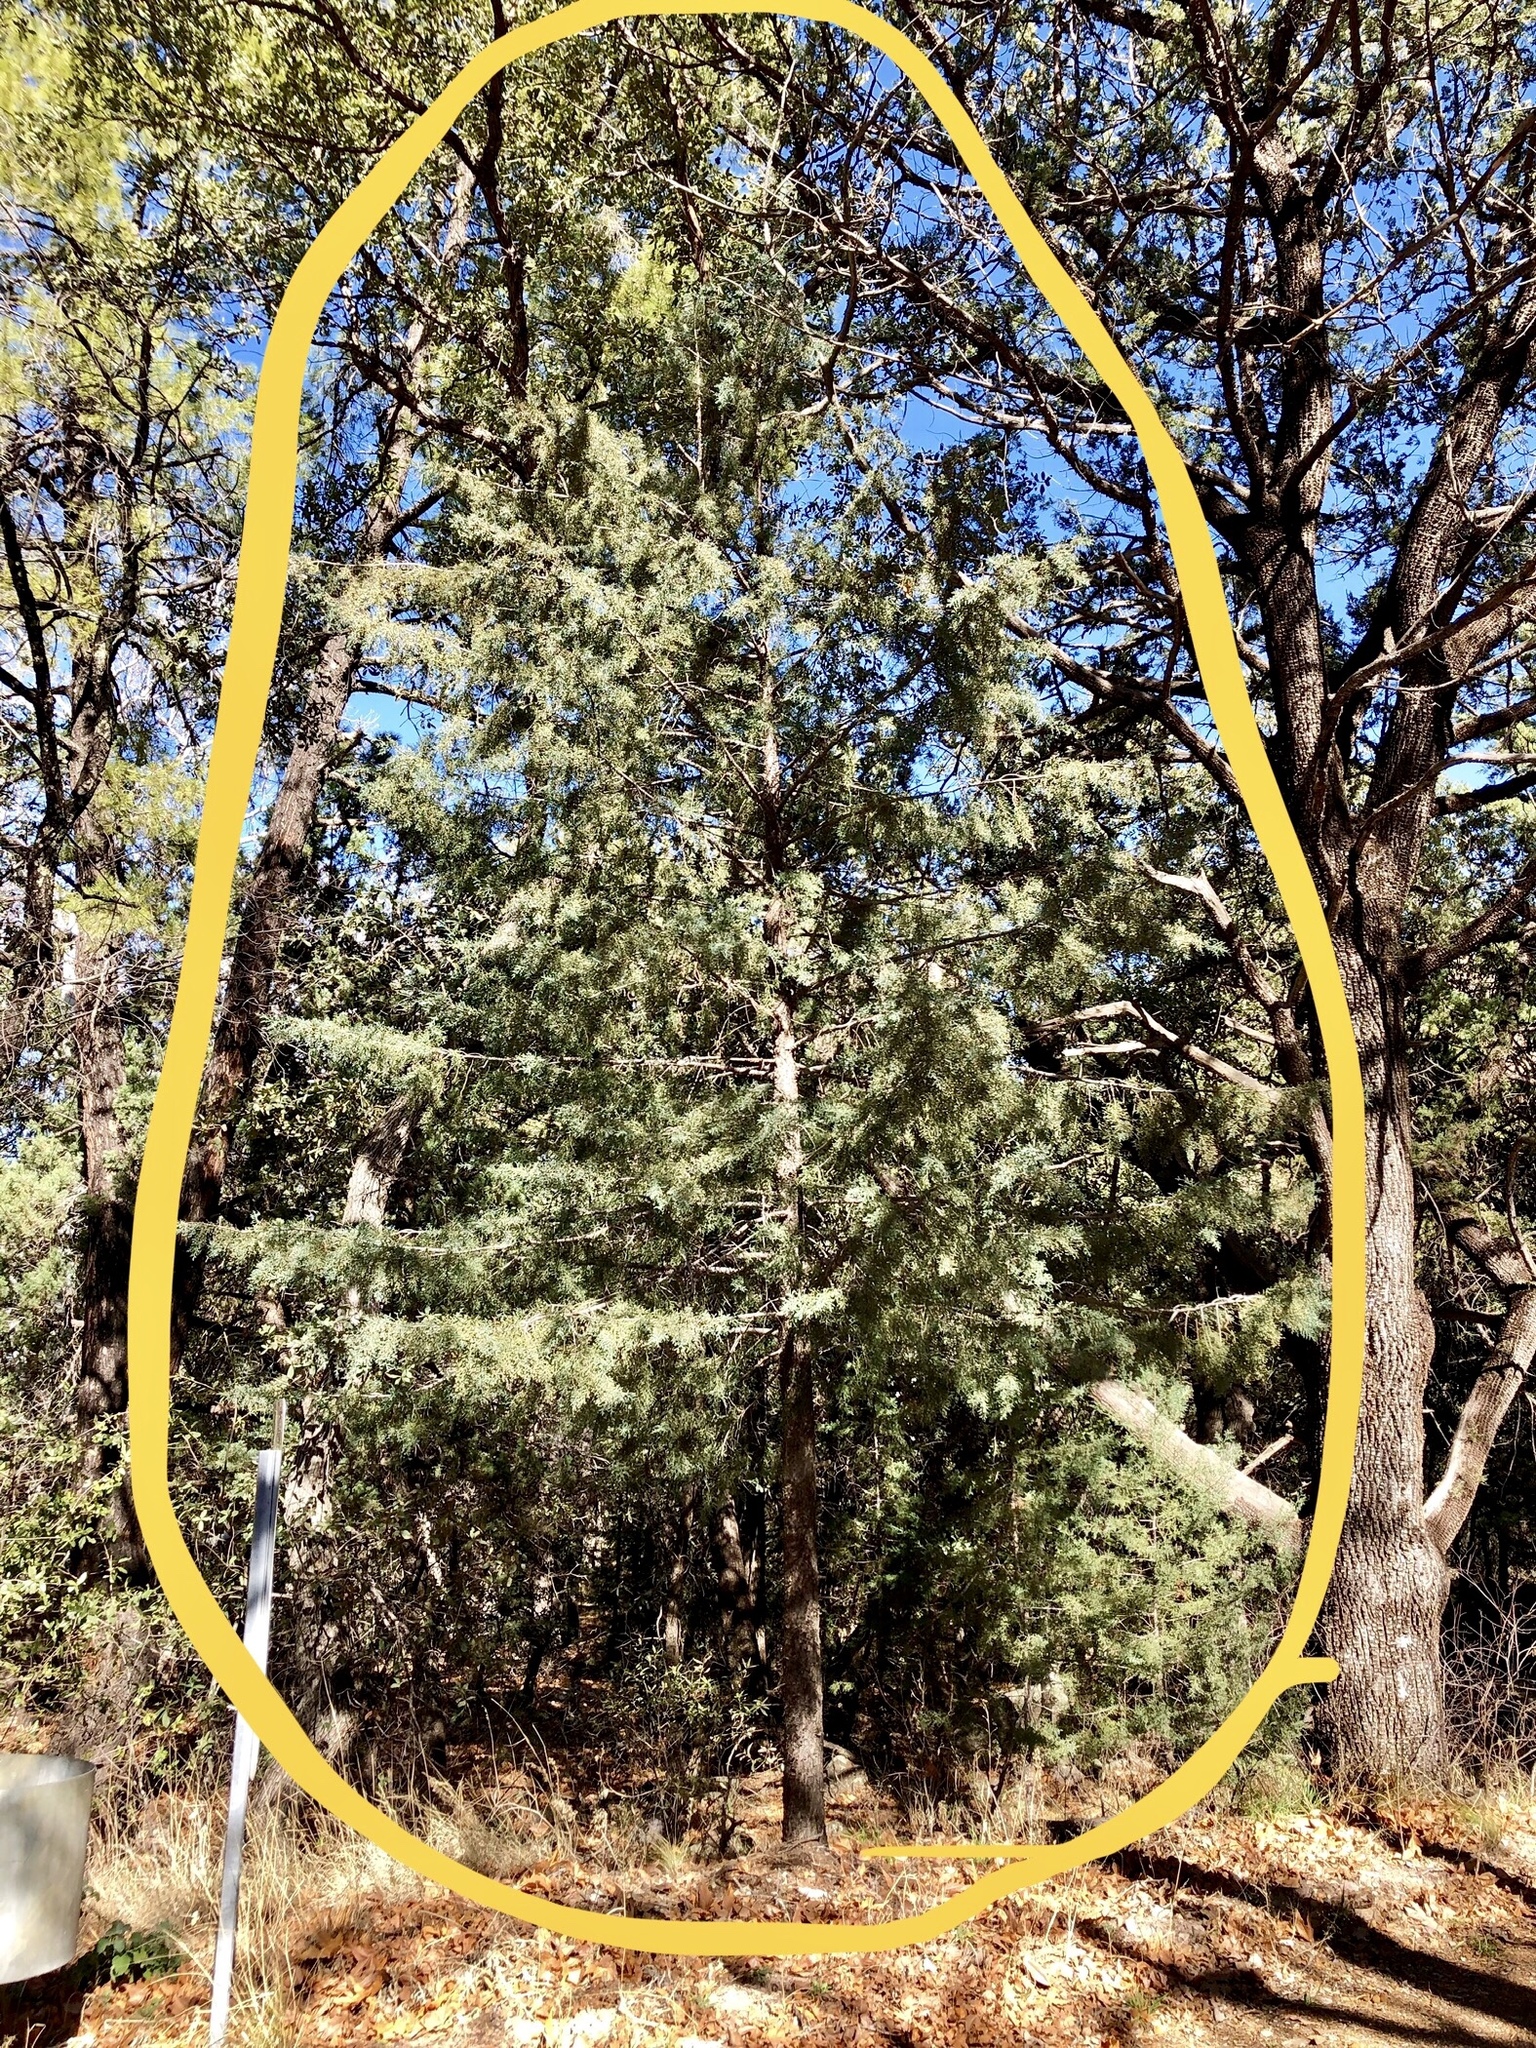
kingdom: Plantae
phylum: Tracheophyta
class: Pinopsida
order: Pinales
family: Cupressaceae
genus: Cupressus
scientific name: Cupressus arizonica
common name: Arizona cypress
